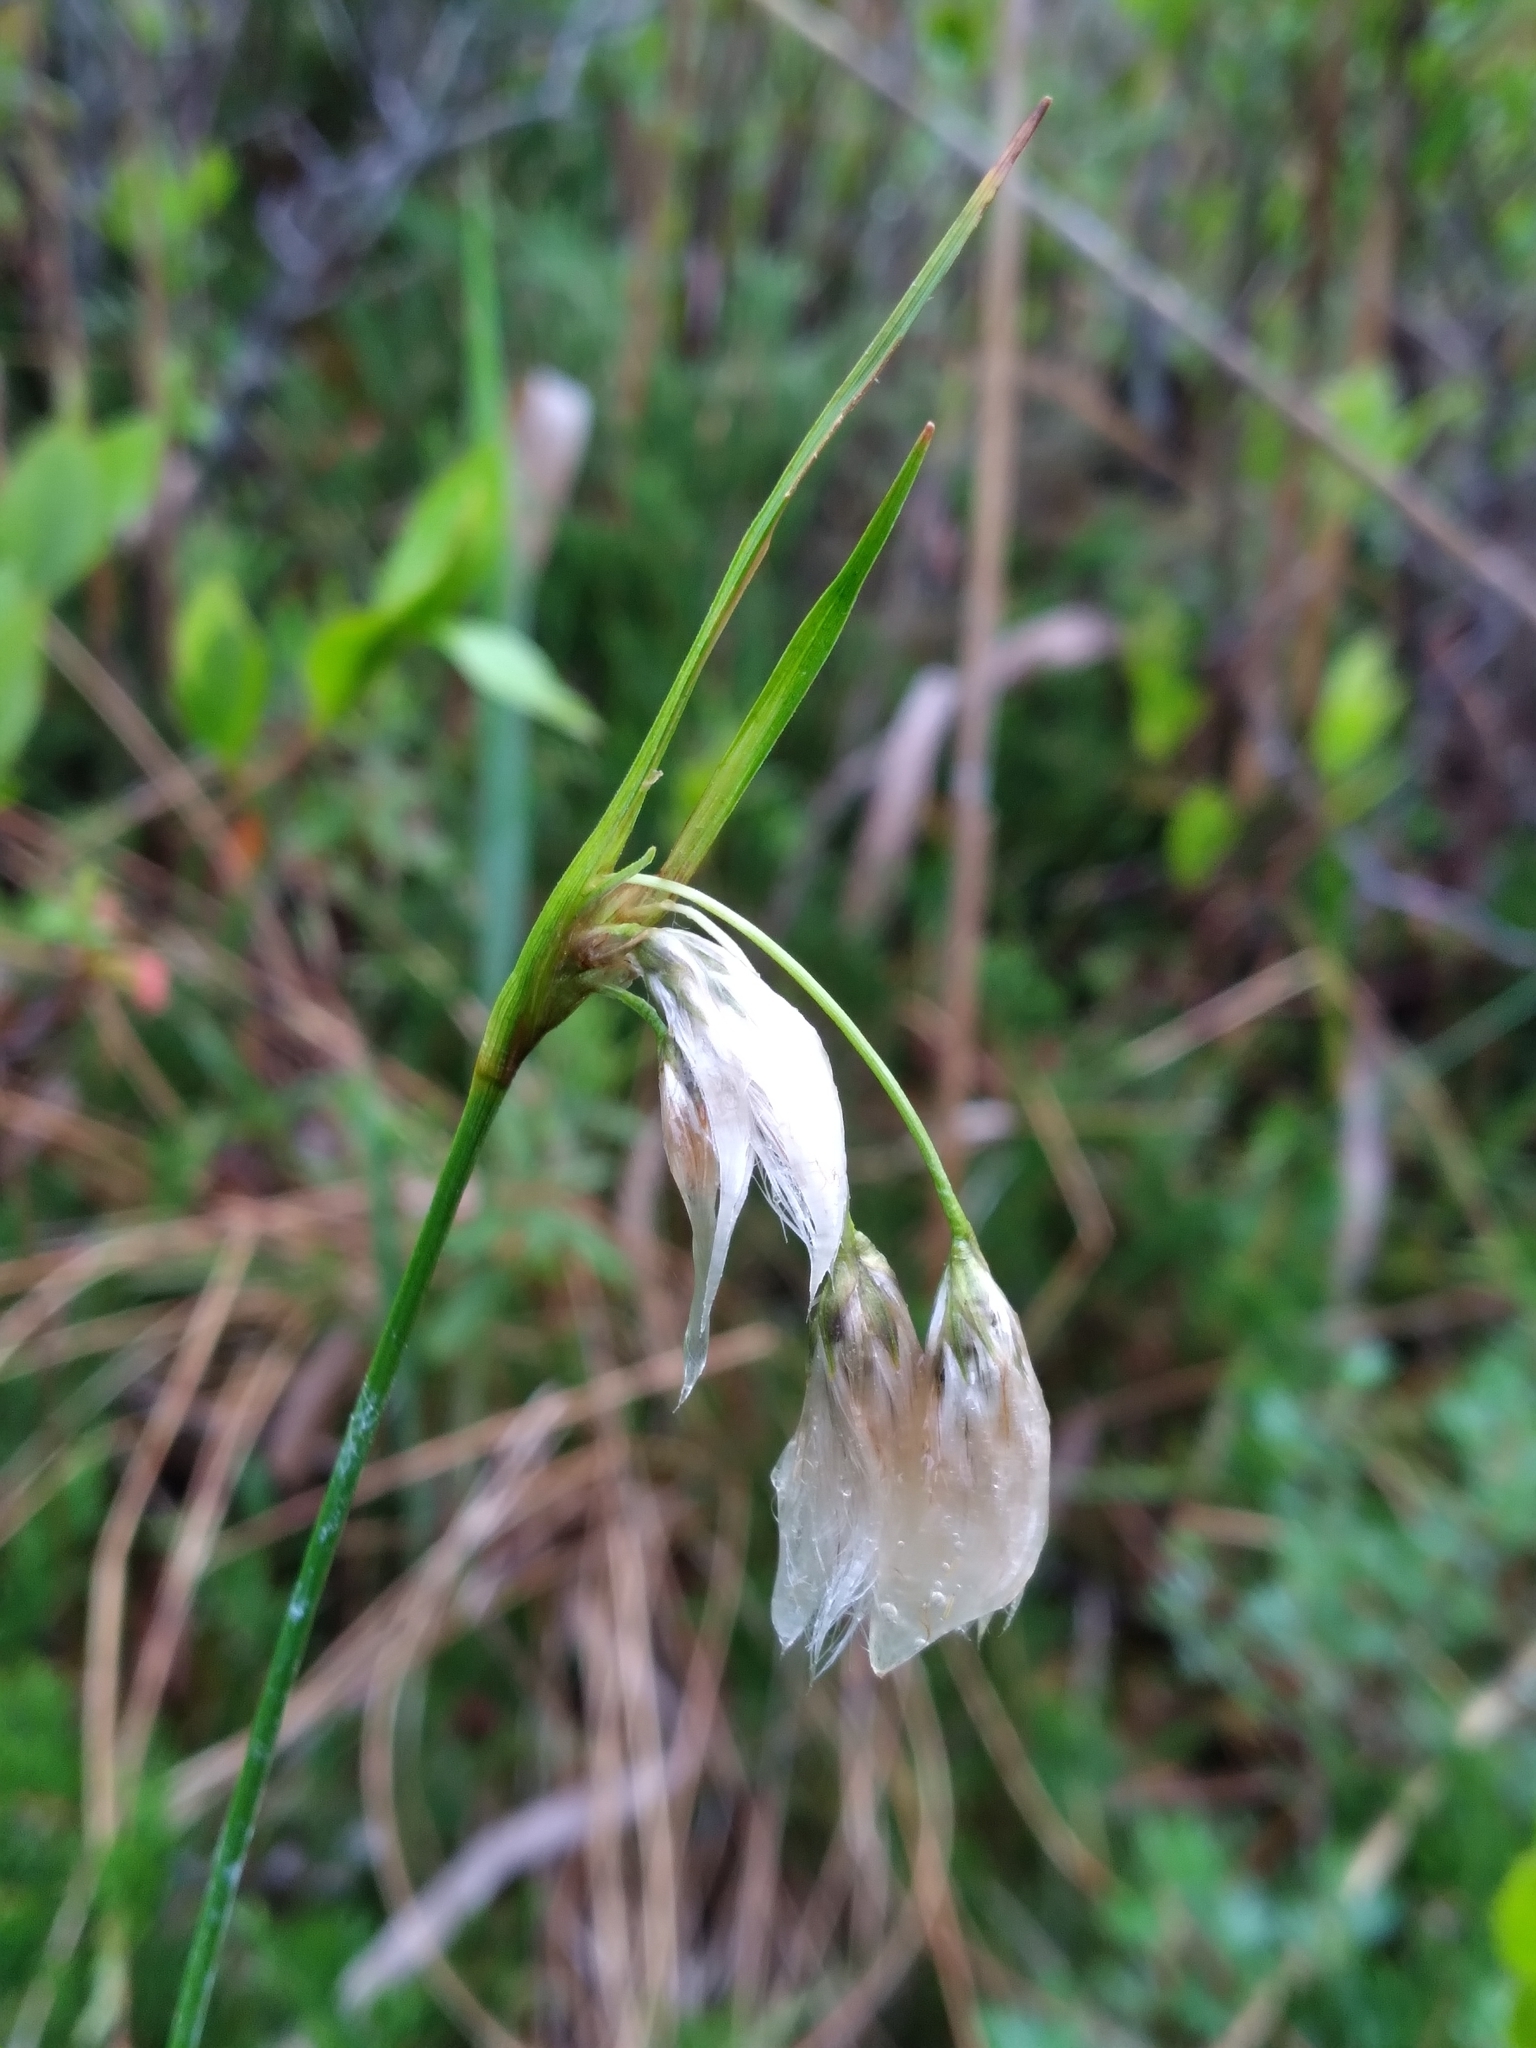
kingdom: Plantae
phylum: Tracheophyta
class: Liliopsida
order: Poales
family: Cyperaceae
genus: Eriophorum
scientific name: Eriophorum viridicarinatum
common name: Green-keeled cottongrass
